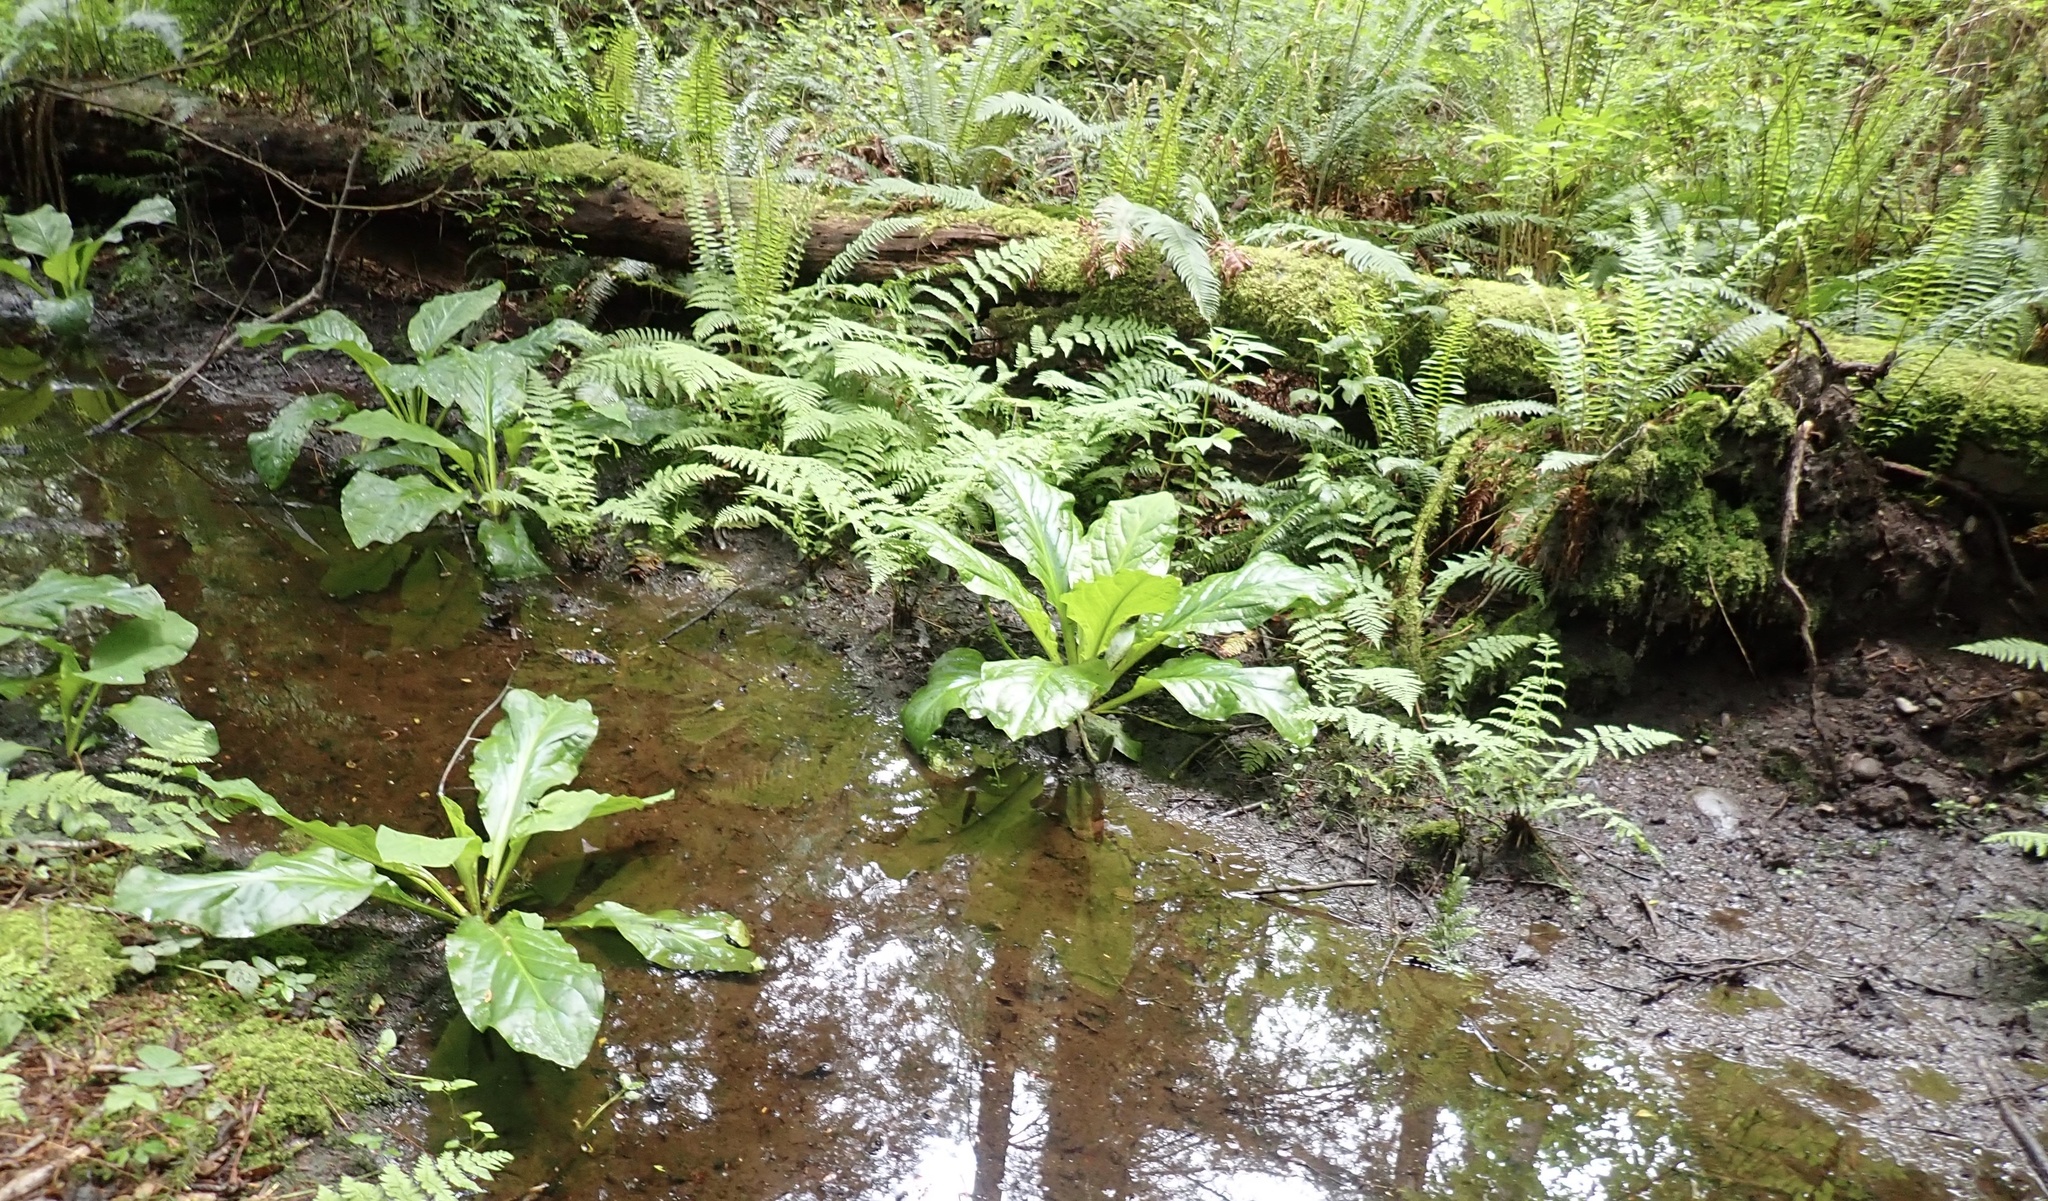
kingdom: Plantae
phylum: Tracheophyta
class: Liliopsida
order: Alismatales
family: Araceae
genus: Lysichiton
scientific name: Lysichiton americanus
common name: American skunk cabbage
